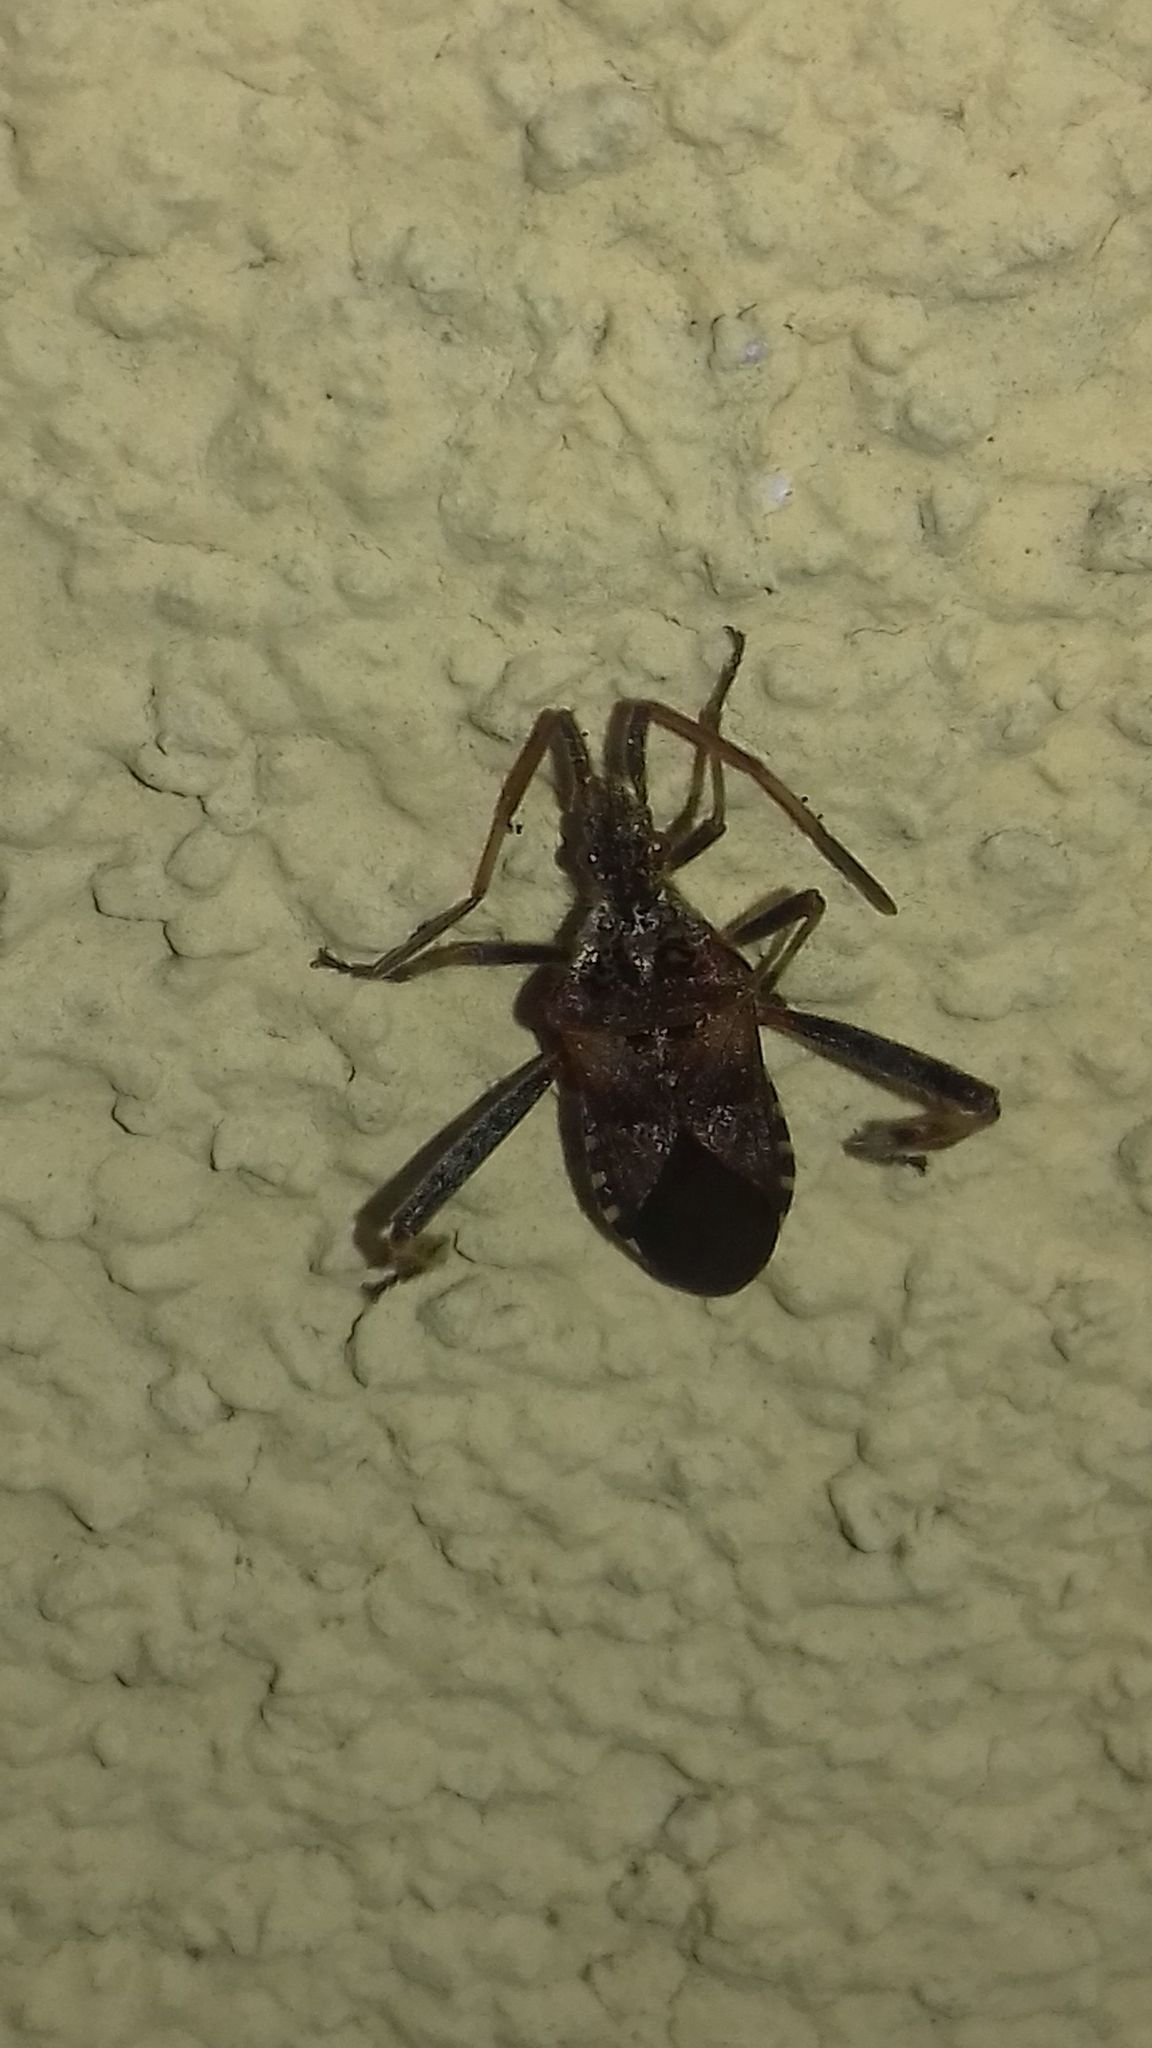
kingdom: Animalia
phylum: Arthropoda
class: Insecta
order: Hemiptera
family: Coreidae
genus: Leptoglossus
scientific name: Leptoglossus occidentalis
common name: Western conifer-seed bug
